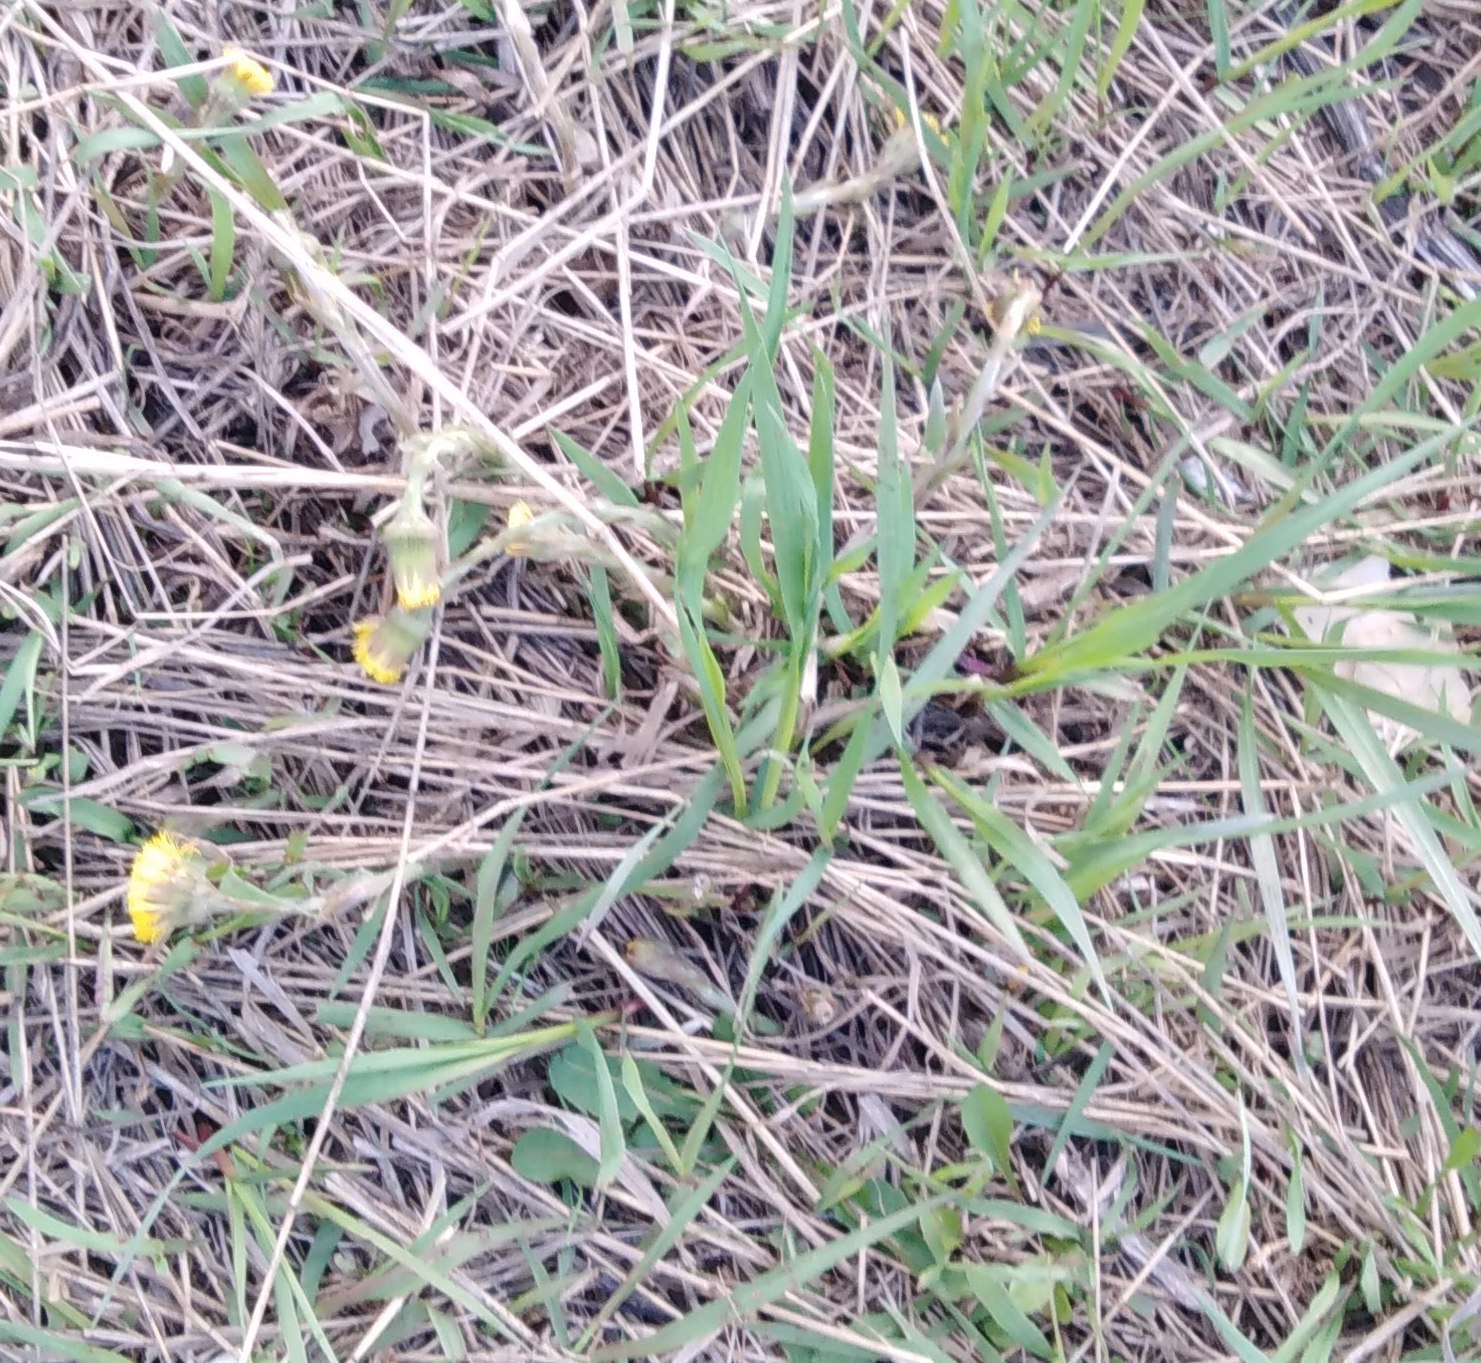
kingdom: Plantae
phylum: Tracheophyta
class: Magnoliopsida
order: Asterales
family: Asteraceae
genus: Tussilago
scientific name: Tussilago farfara
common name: Coltsfoot
